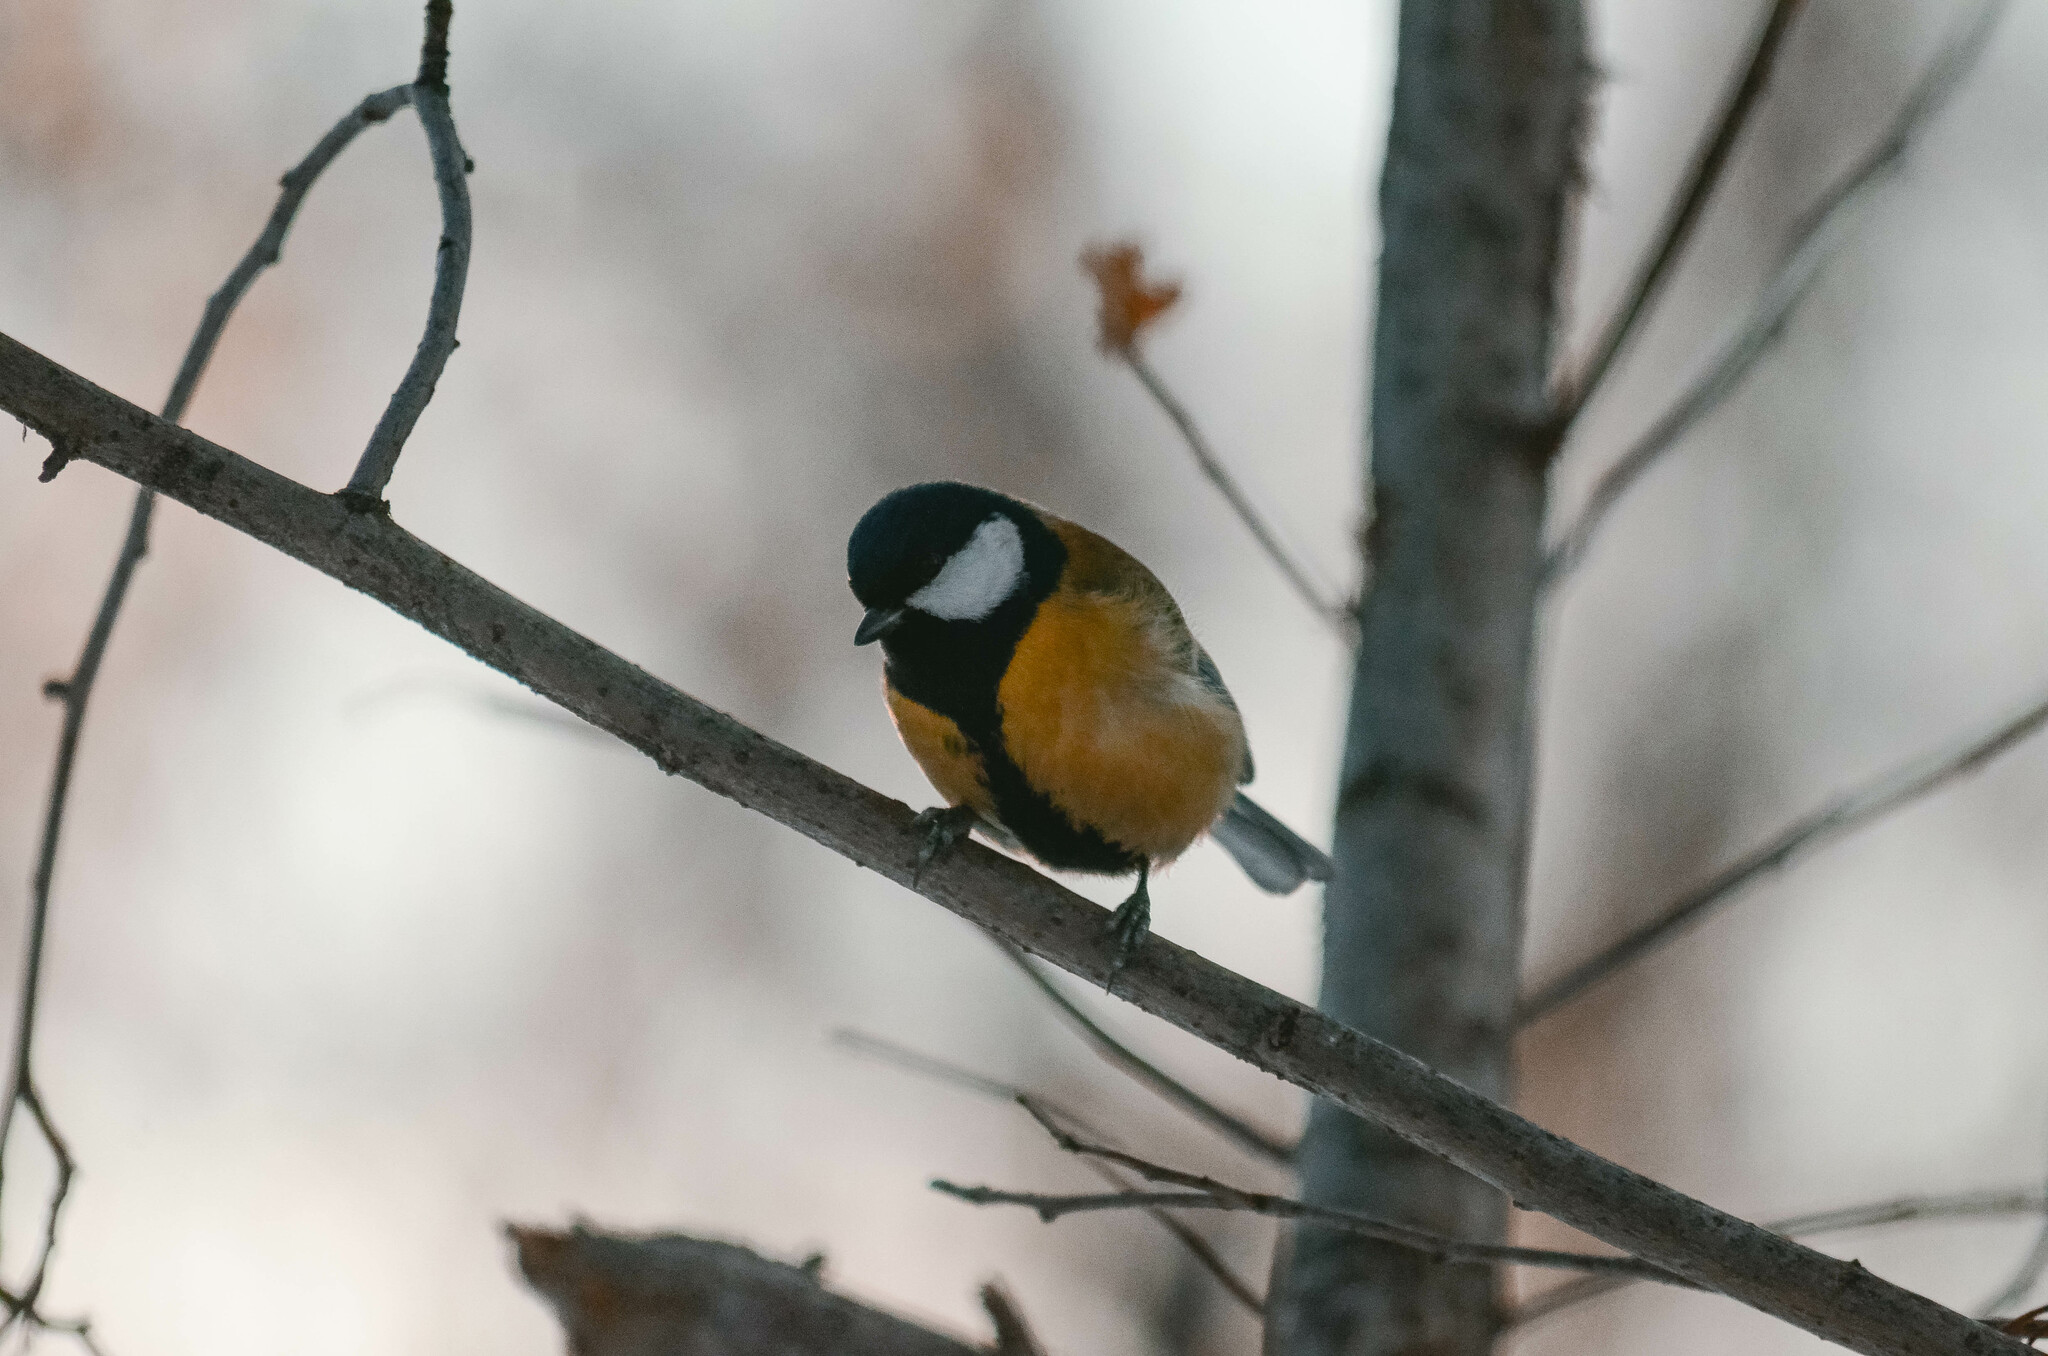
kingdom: Animalia
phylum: Chordata
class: Aves
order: Passeriformes
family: Paridae
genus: Parus
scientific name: Parus major
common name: Great tit
